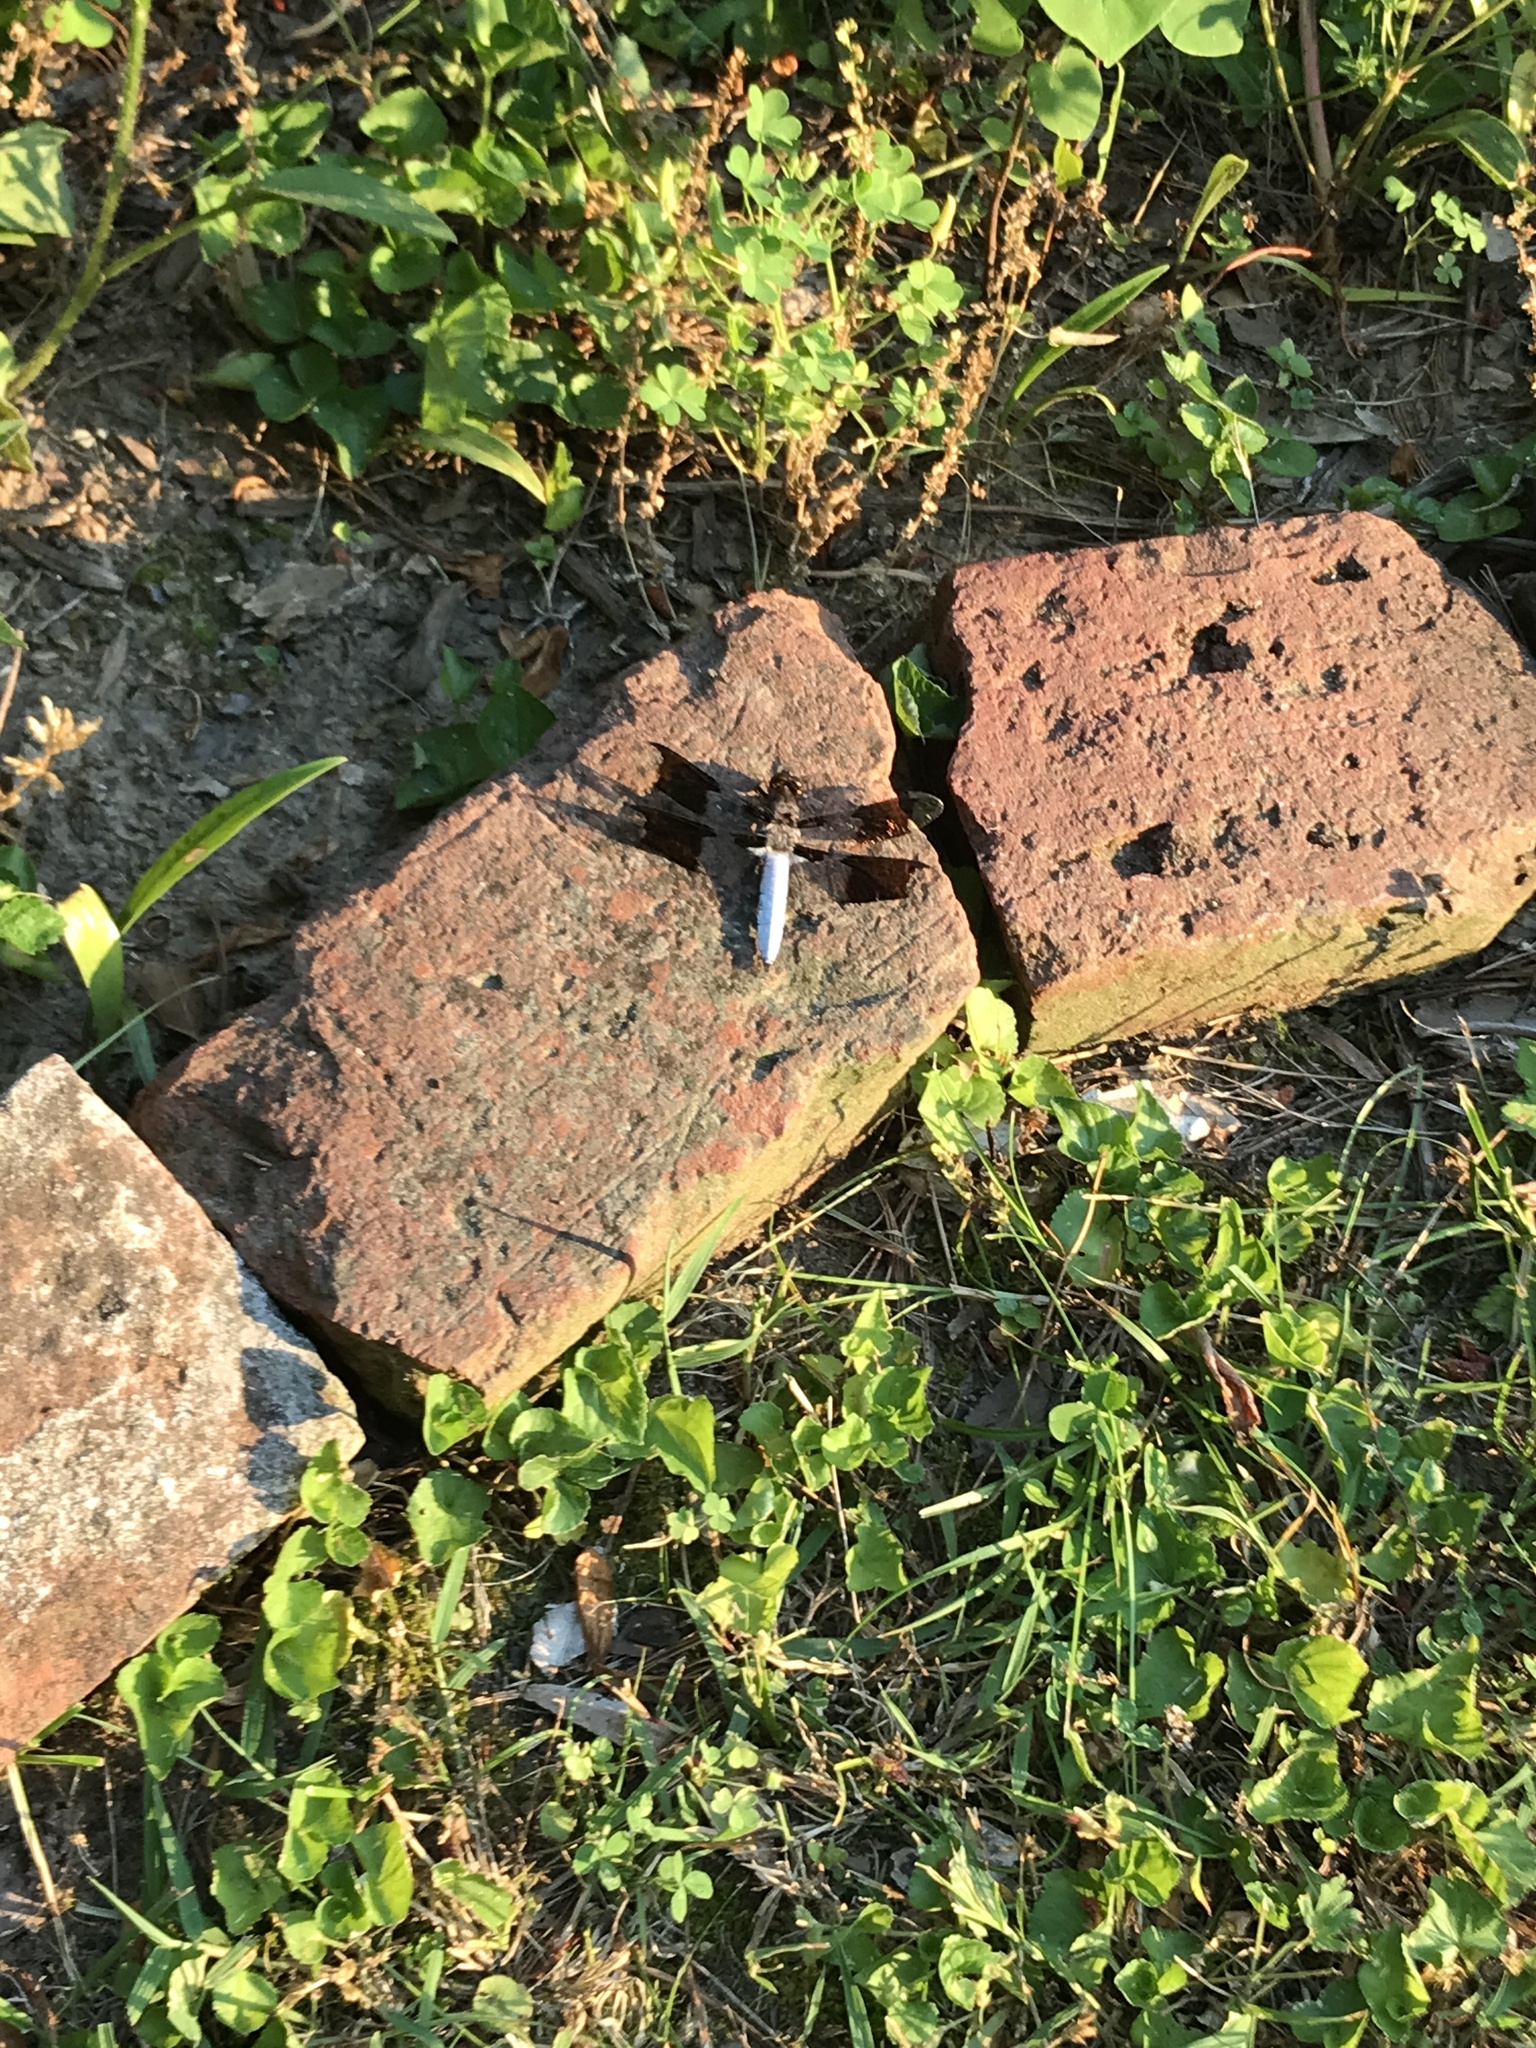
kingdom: Animalia
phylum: Arthropoda
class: Insecta
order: Odonata
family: Libellulidae
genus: Plathemis
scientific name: Plathemis lydia
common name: Common whitetail
